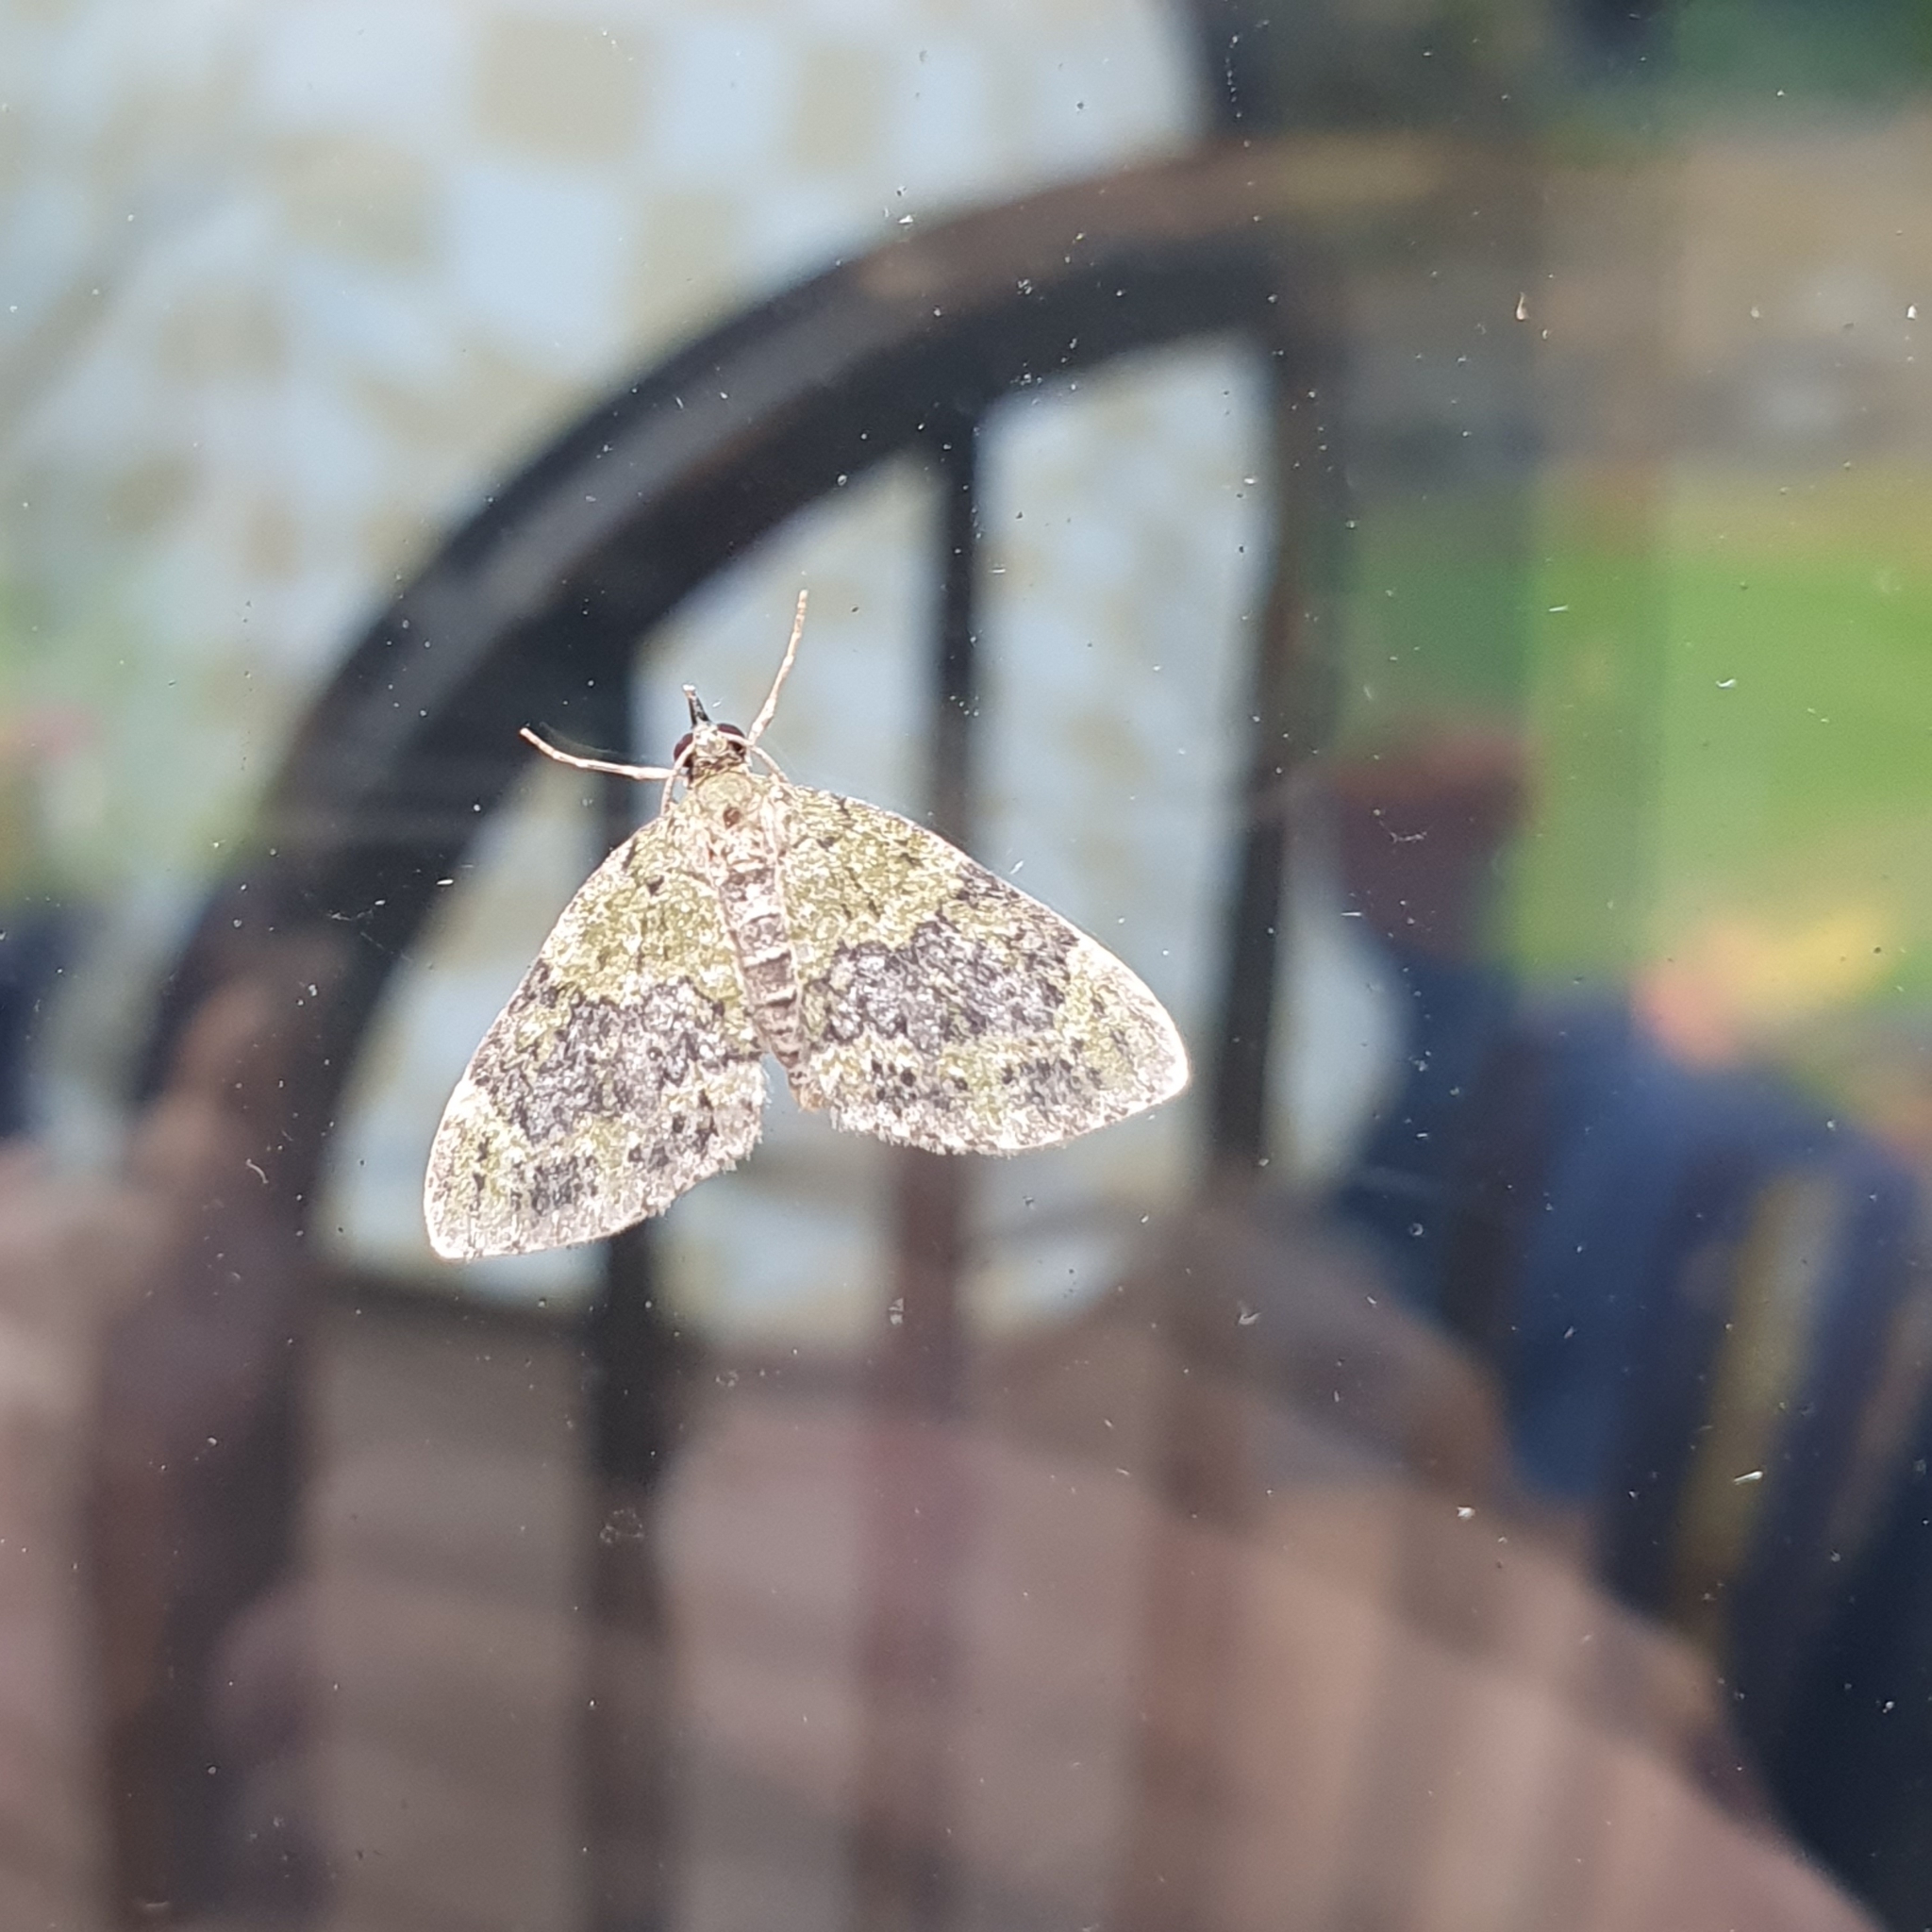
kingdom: Animalia
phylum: Arthropoda
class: Insecta
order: Lepidoptera
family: Geometridae
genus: Acasis
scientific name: Acasis viretata
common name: Yellow-barred brindle
